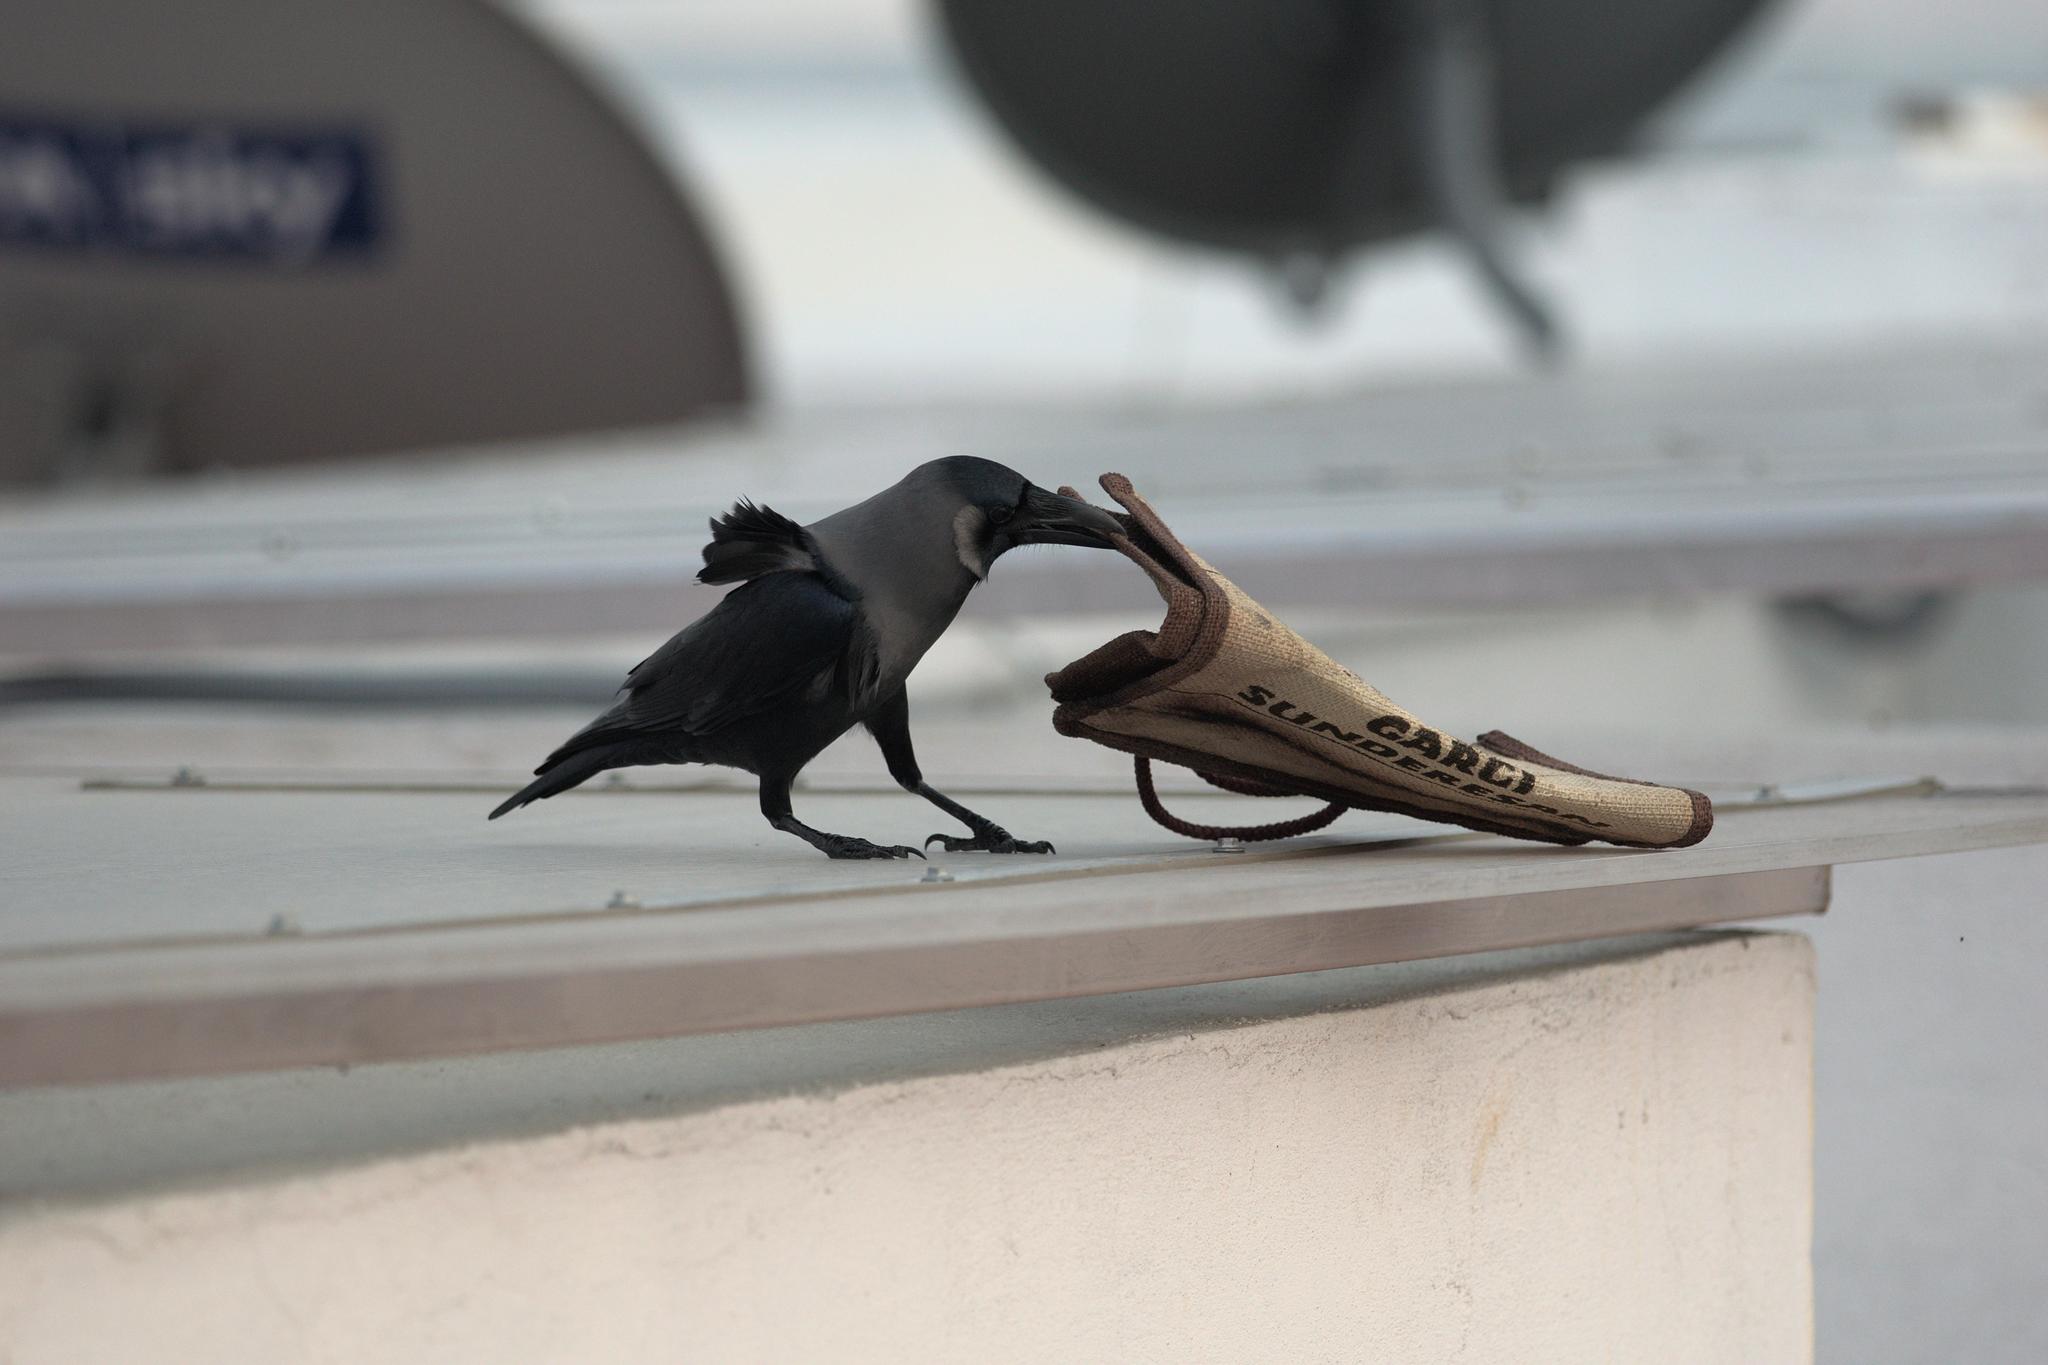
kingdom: Animalia
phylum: Chordata
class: Aves
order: Passeriformes
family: Corvidae
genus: Corvus
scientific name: Corvus splendens
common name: House crow
